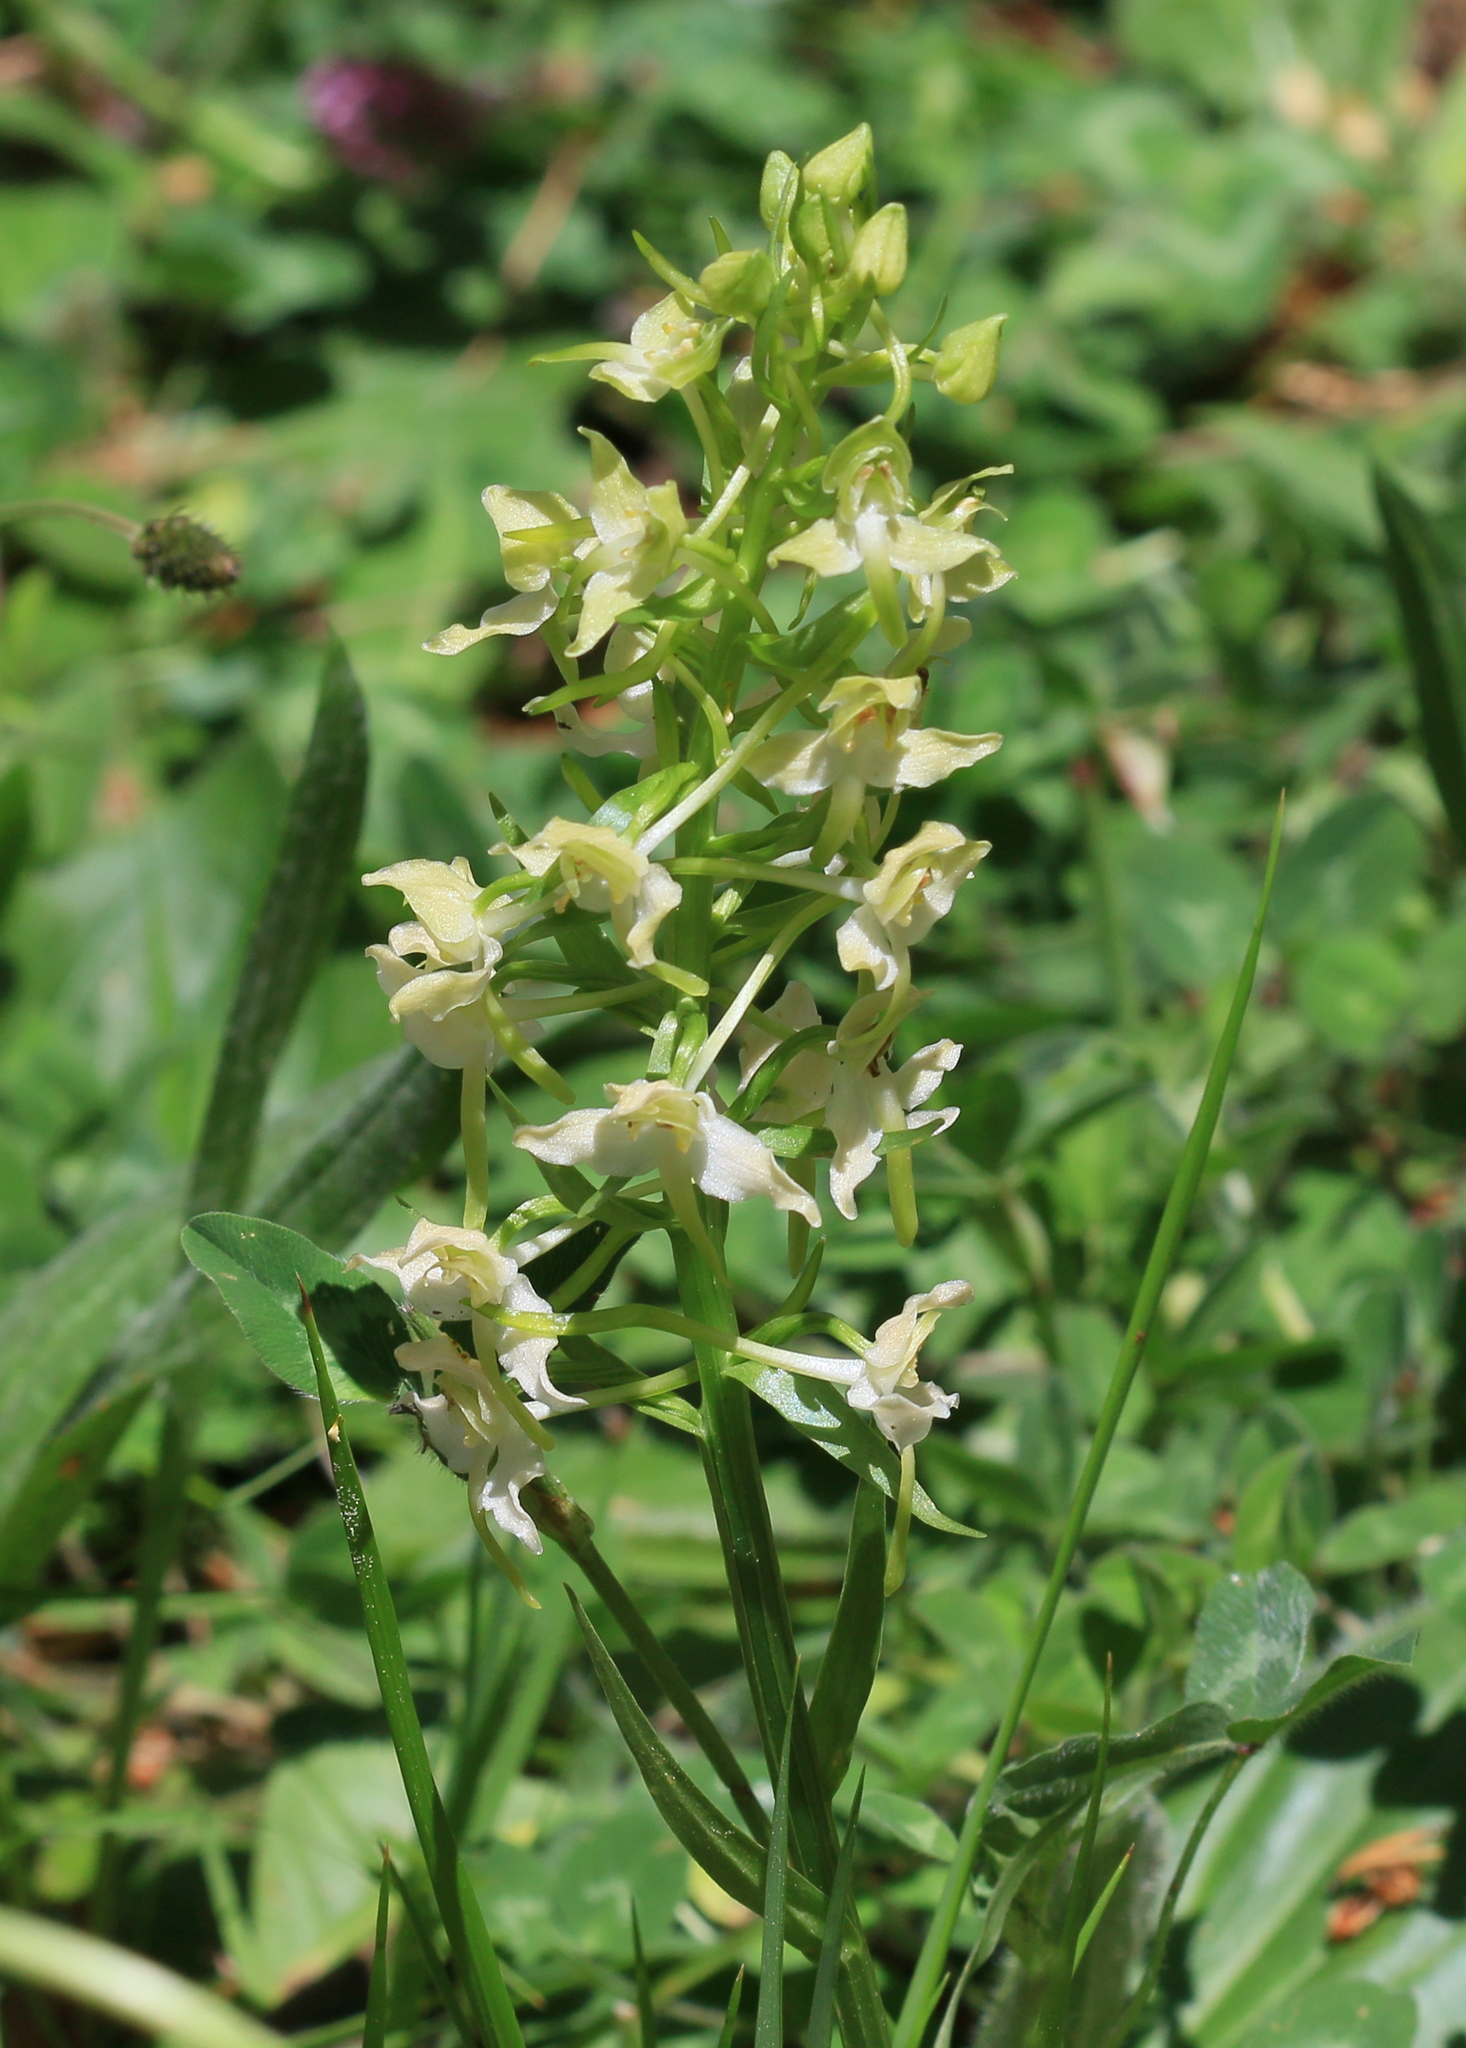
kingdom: Plantae
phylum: Tracheophyta
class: Liliopsida
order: Asparagales
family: Orchidaceae
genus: Platanthera
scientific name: Platanthera chlorantha
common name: Greater butterfly-orchid
